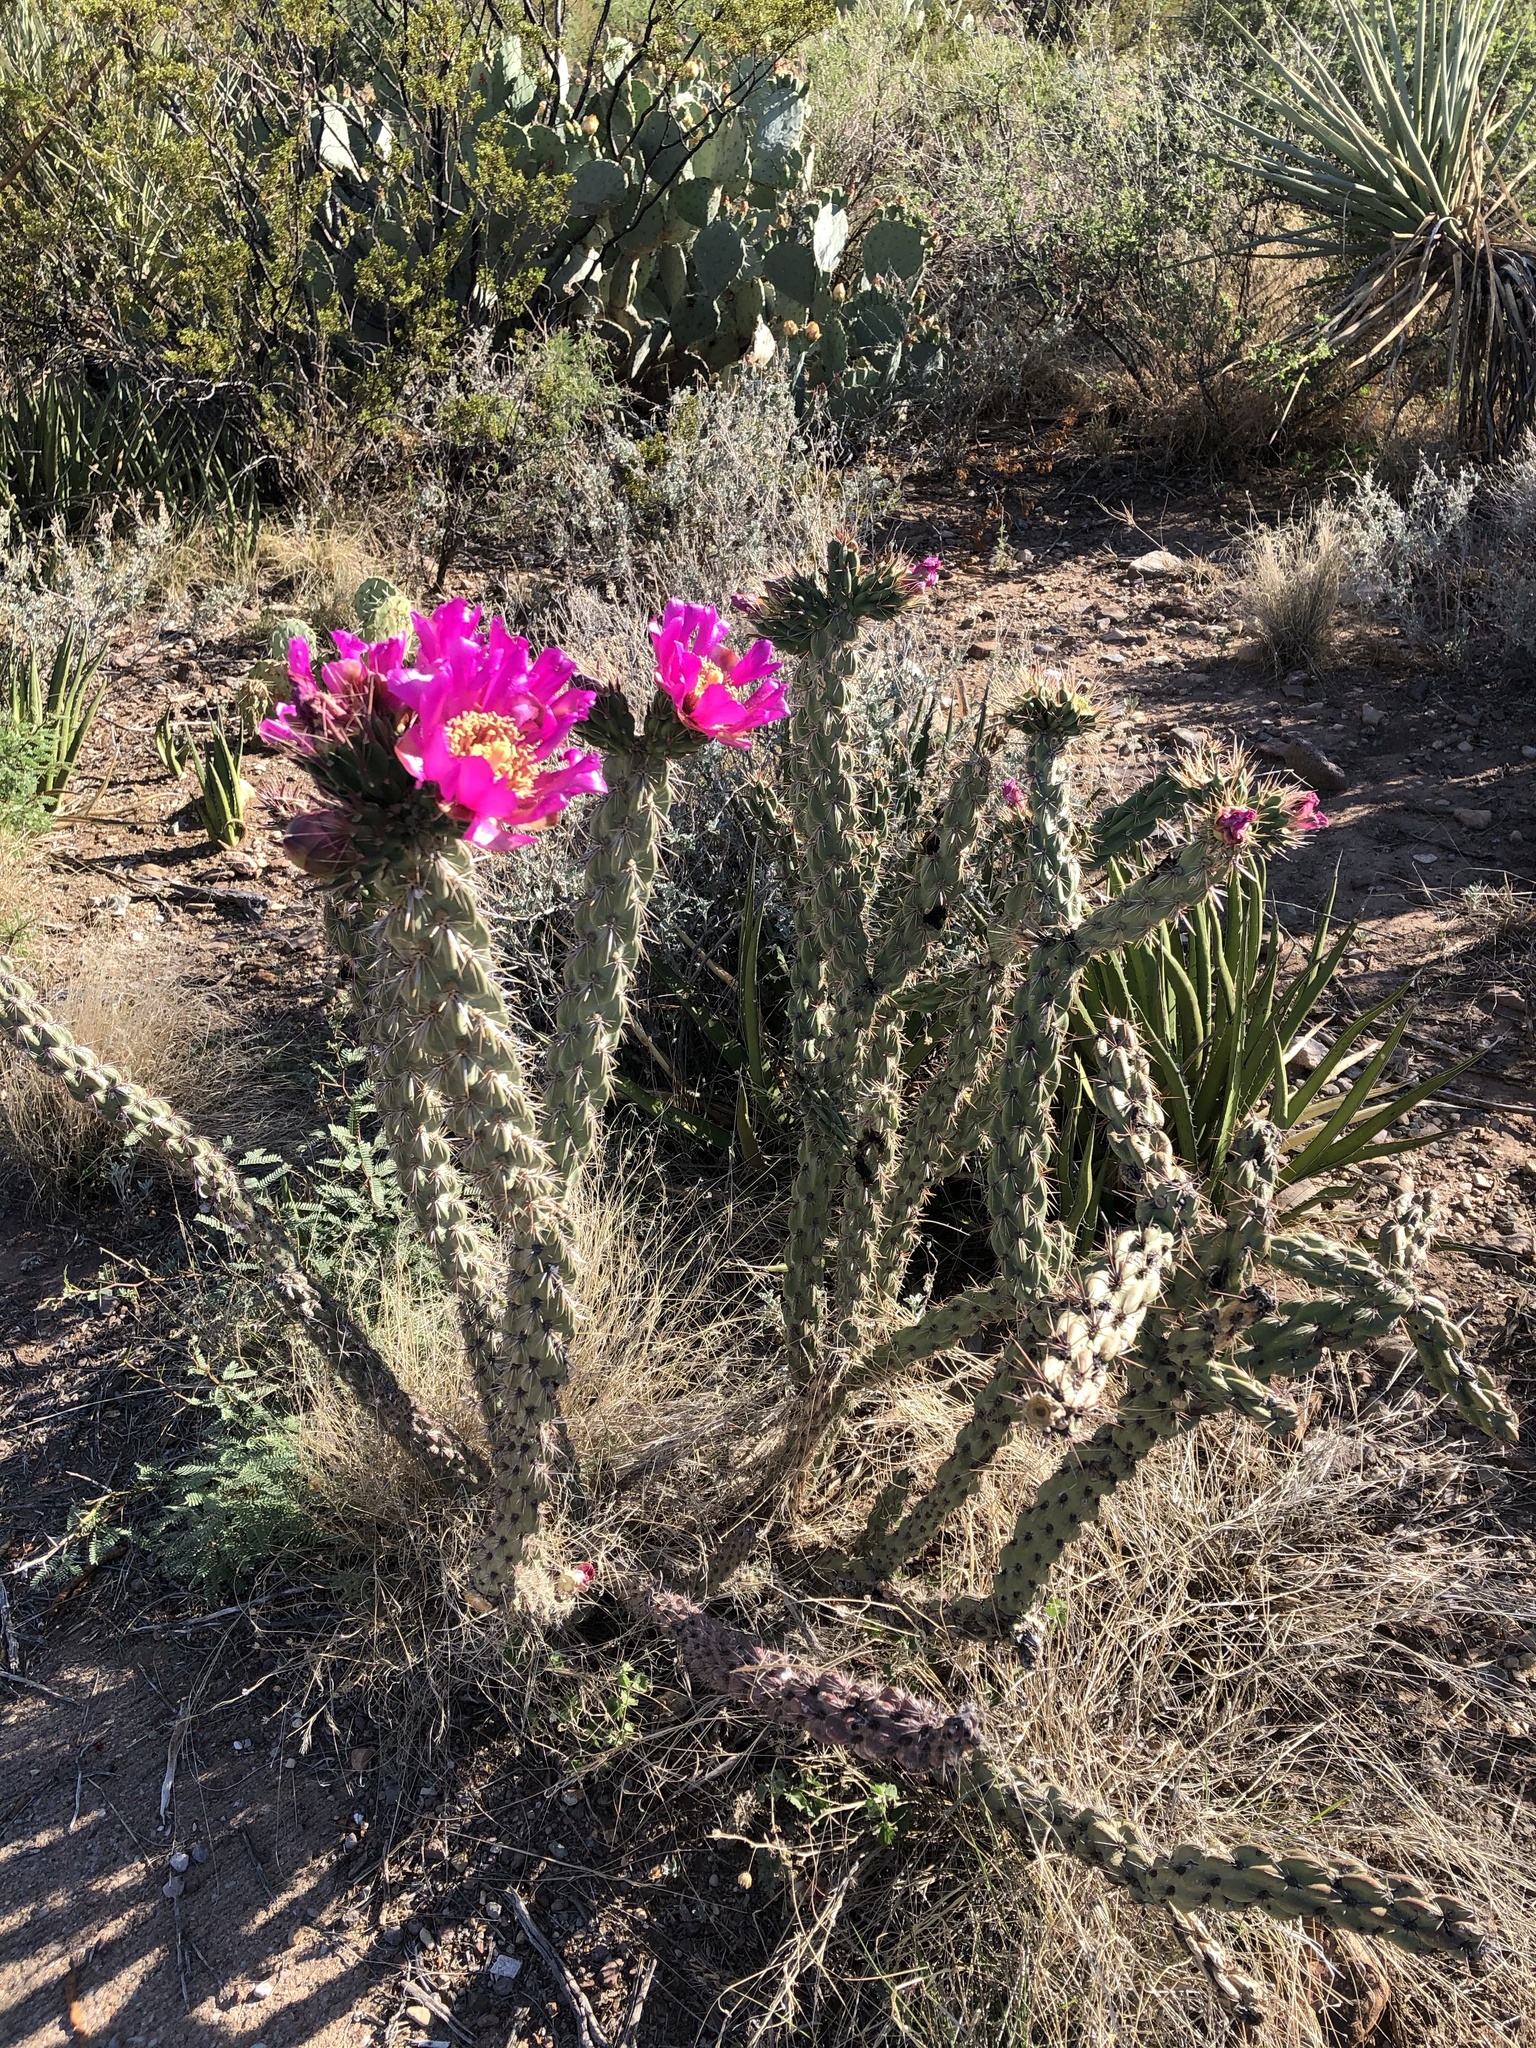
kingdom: Plantae
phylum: Tracheophyta
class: Magnoliopsida
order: Caryophyllales
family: Cactaceae
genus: Cylindropuntia
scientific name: Cylindropuntia imbricata
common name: Candelabrum cactus
